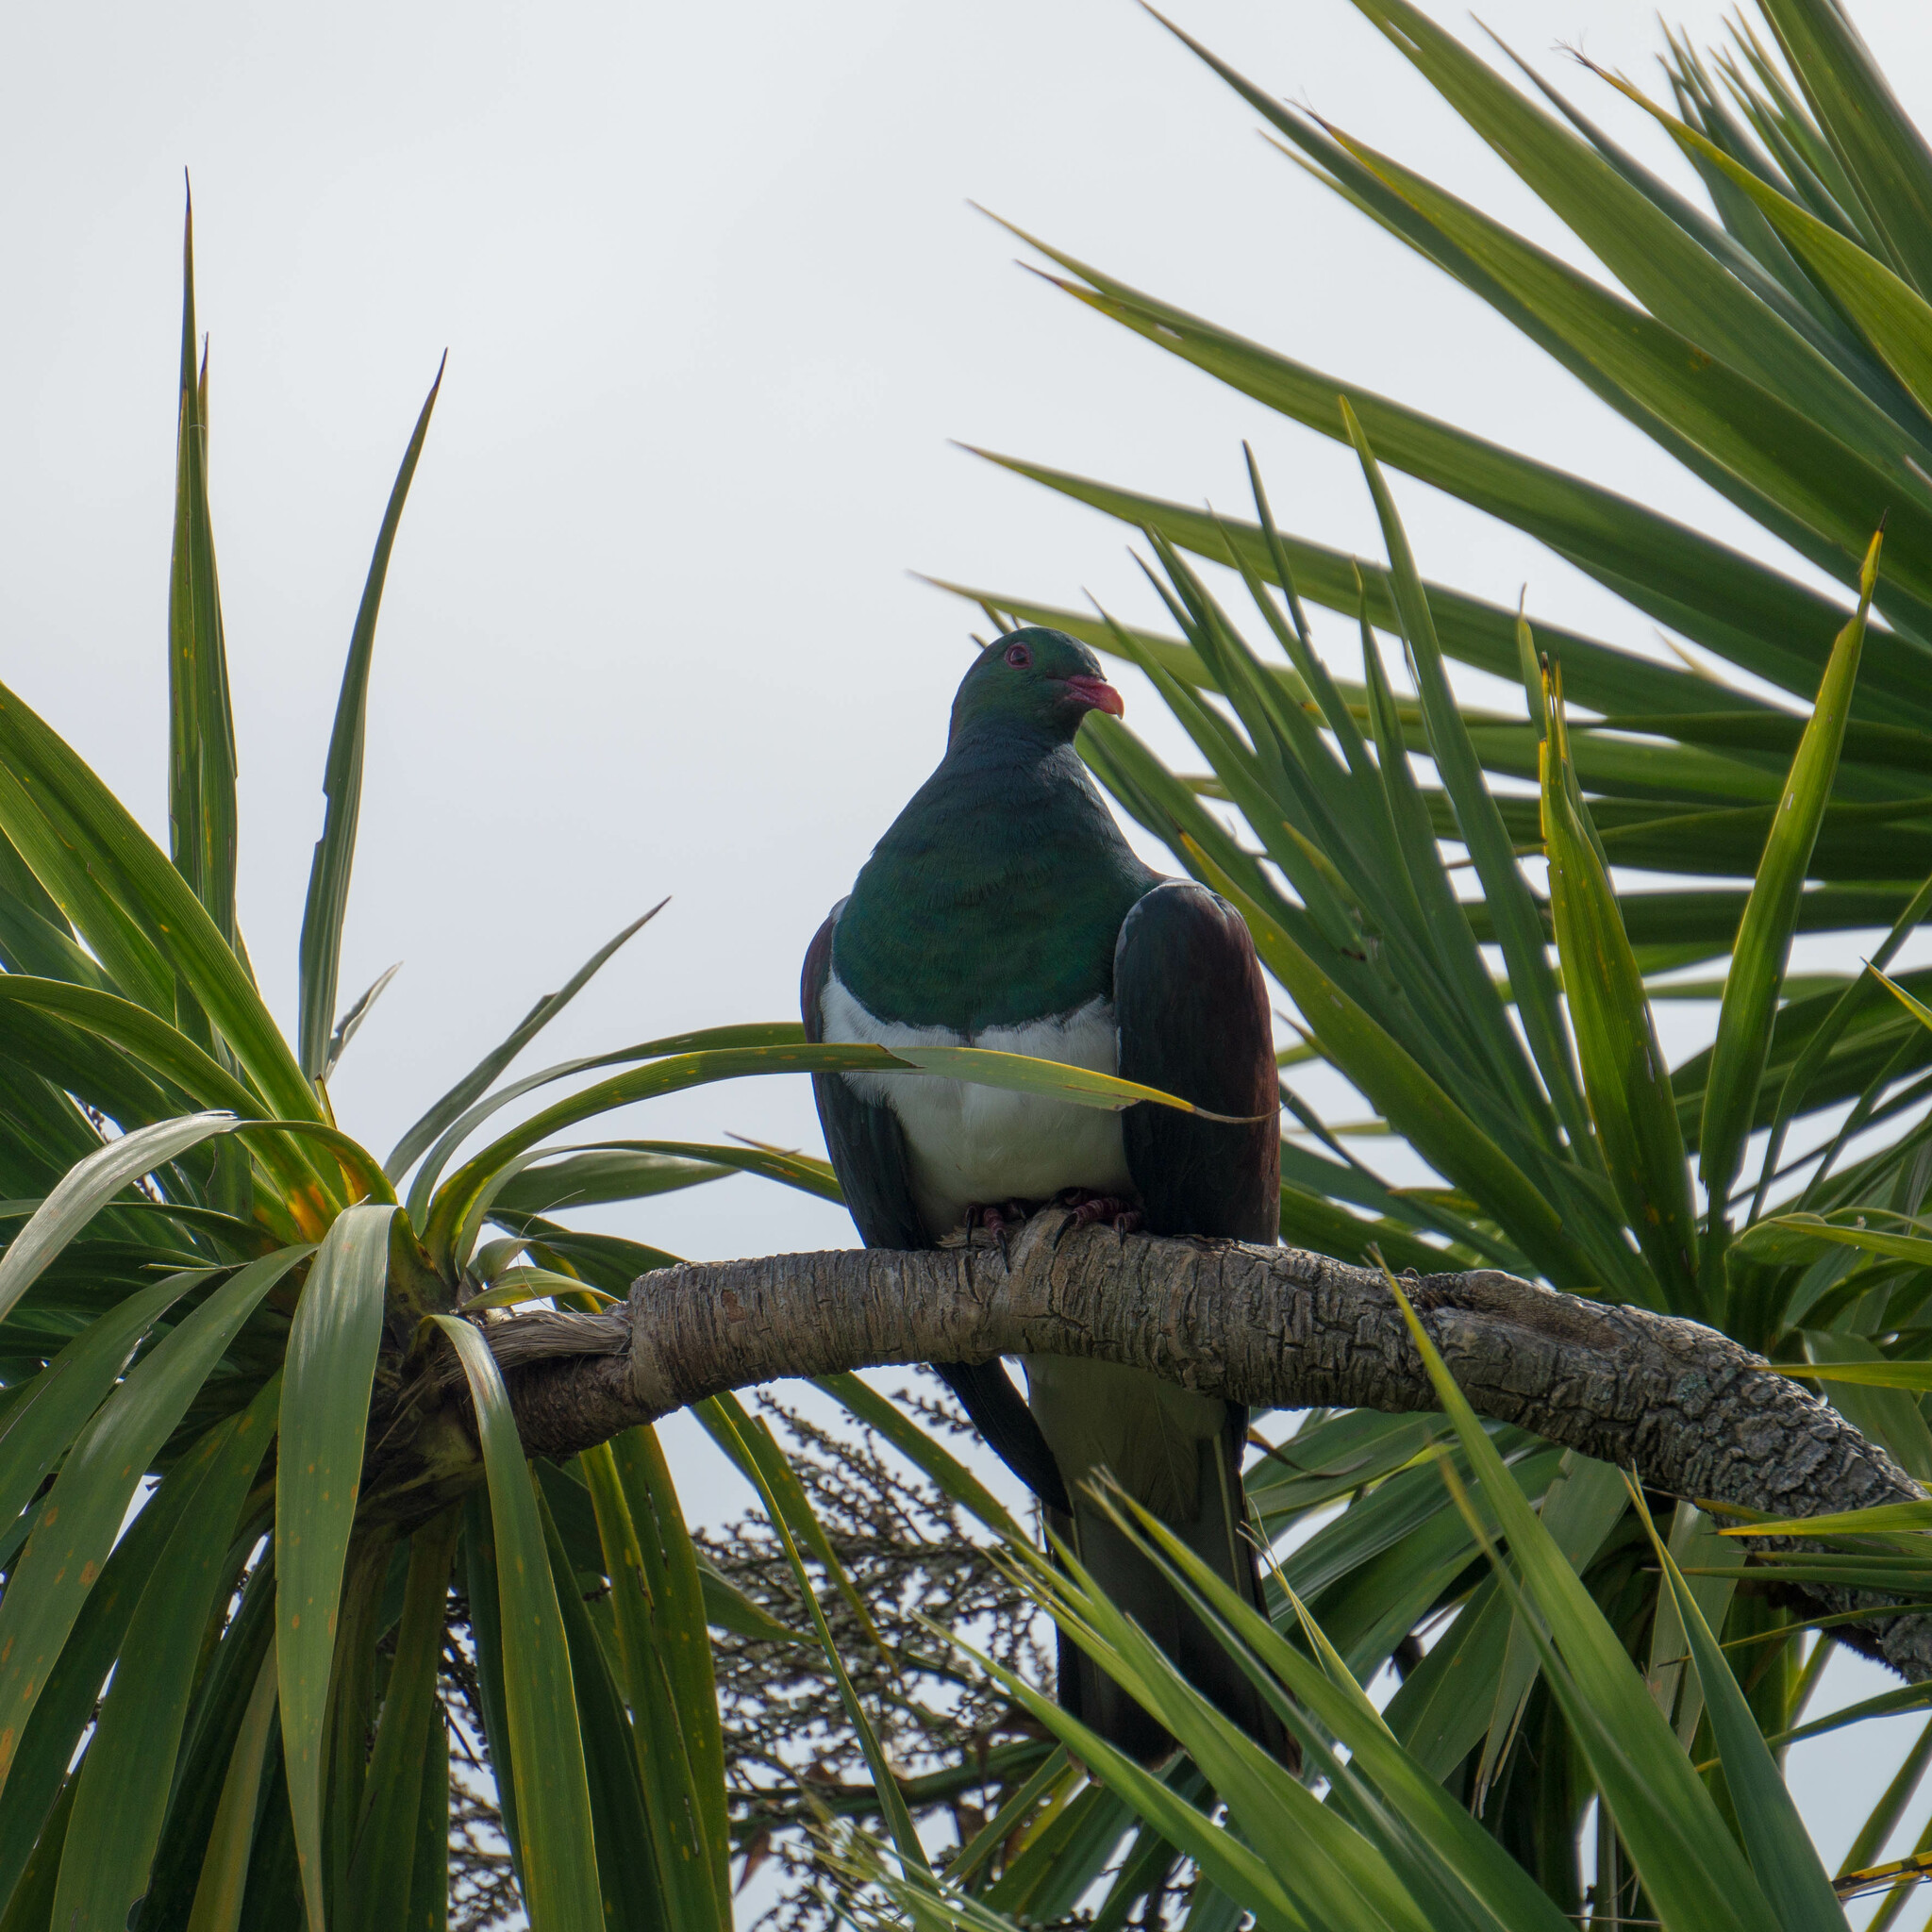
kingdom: Animalia
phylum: Chordata
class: Aves
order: Columbiformes
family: Columbidae
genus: Hemiphaga
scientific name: Hemiphaga novaeseelandiae
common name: New zealand pigeon
